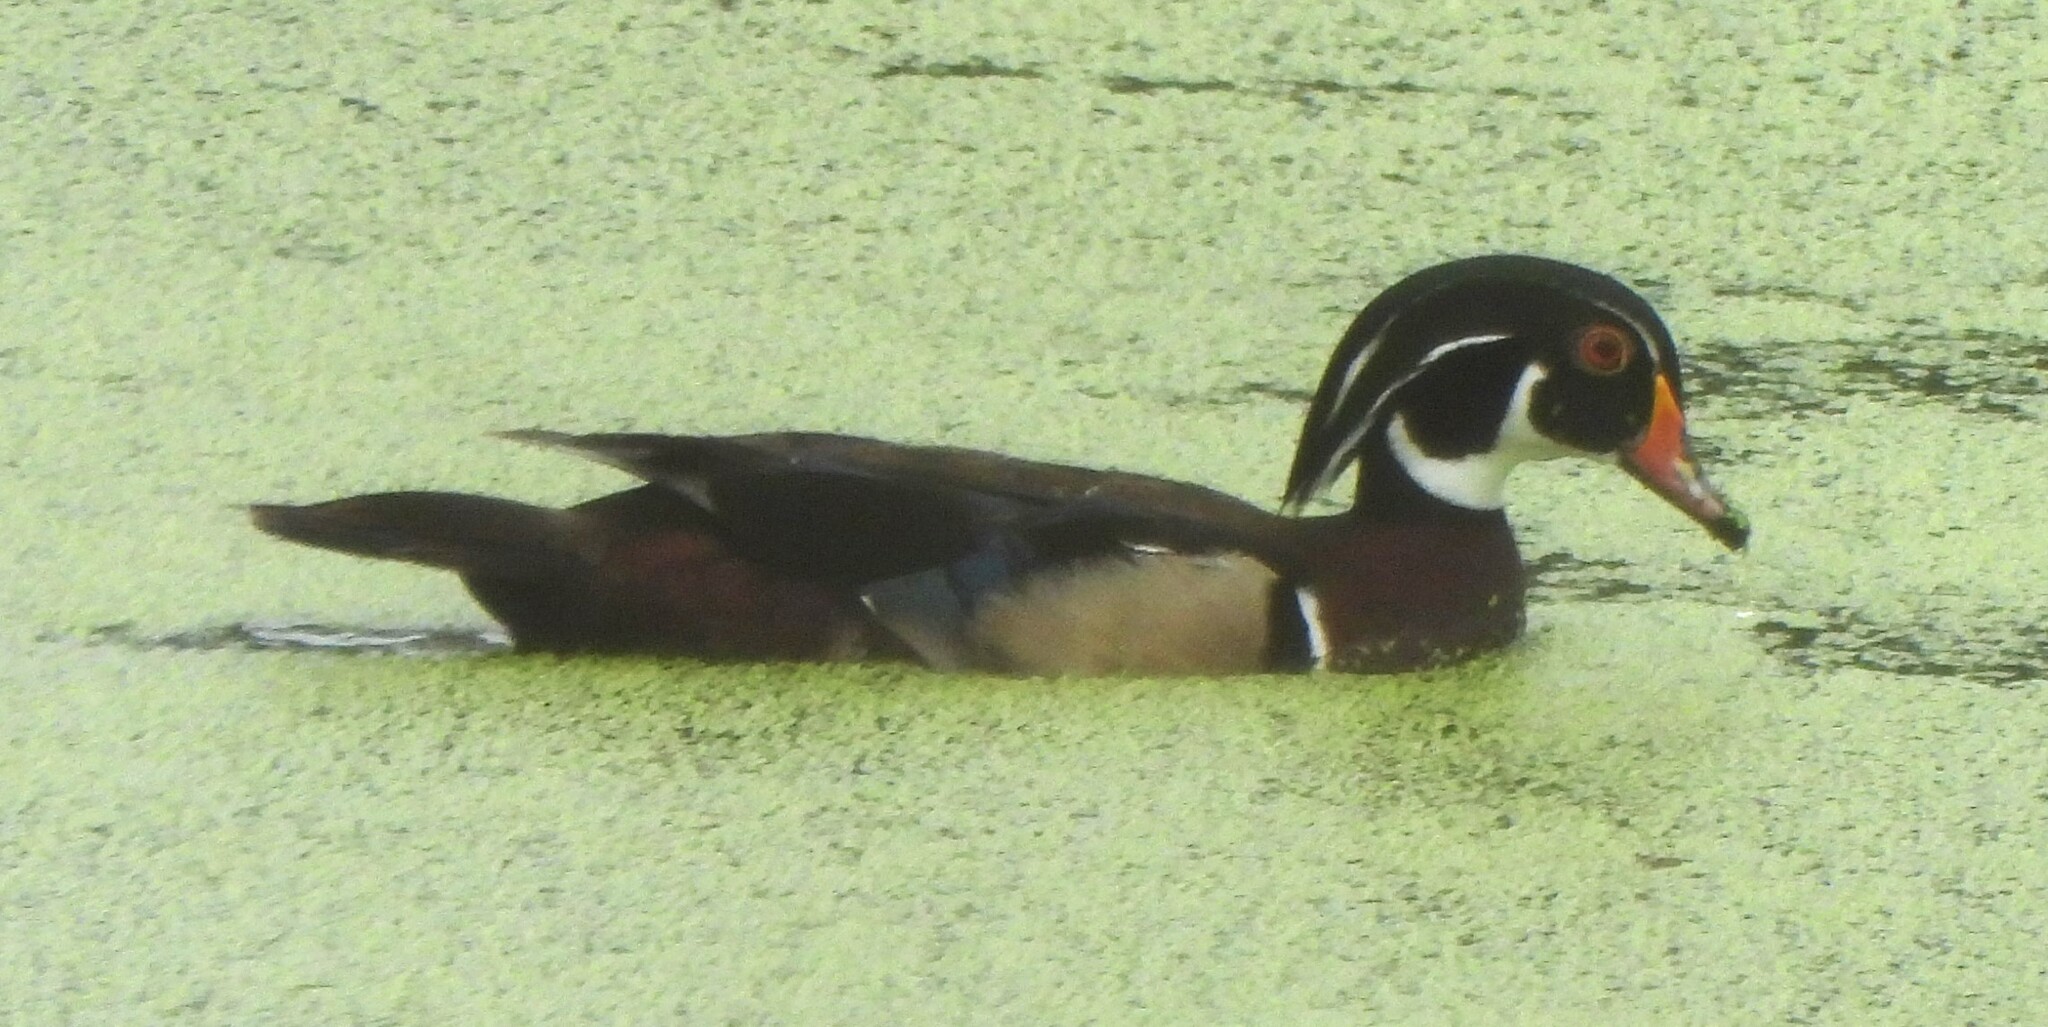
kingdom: Animalia
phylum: Chordata
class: Aves
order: Anseriformes
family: Anatidae
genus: Aix
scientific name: Aix sponsa
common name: Wood duck
